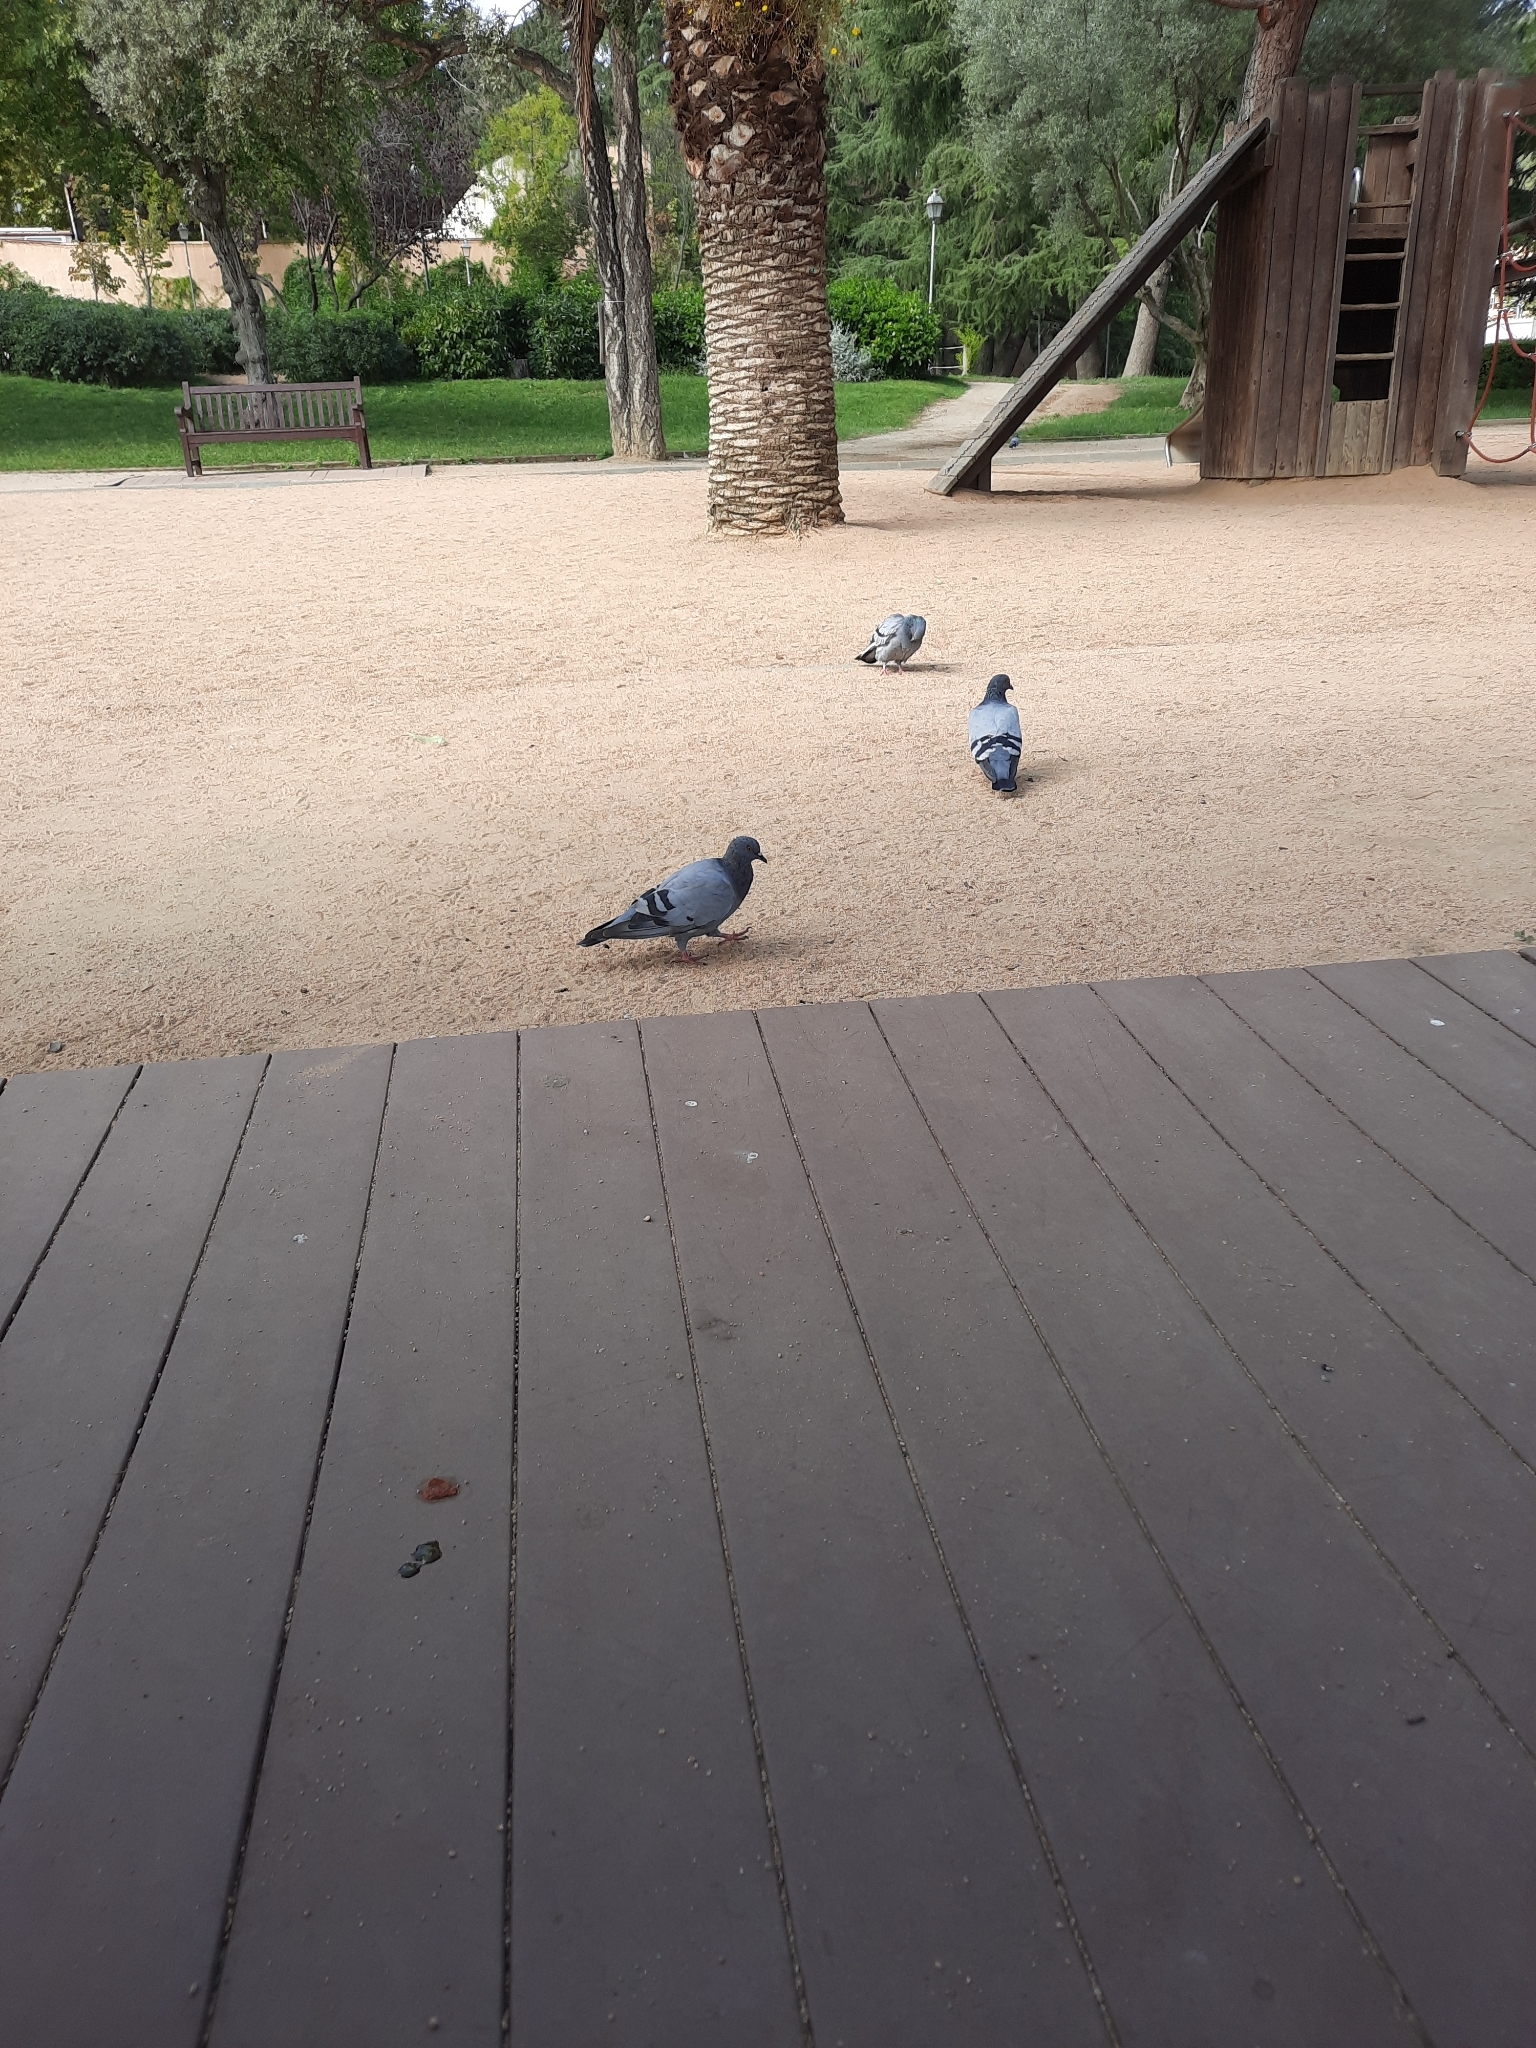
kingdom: Animalia
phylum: Chordata
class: Aves
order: Columbiformes
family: Columbidae
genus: Columba
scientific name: Columba livia
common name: Rock pigeon
